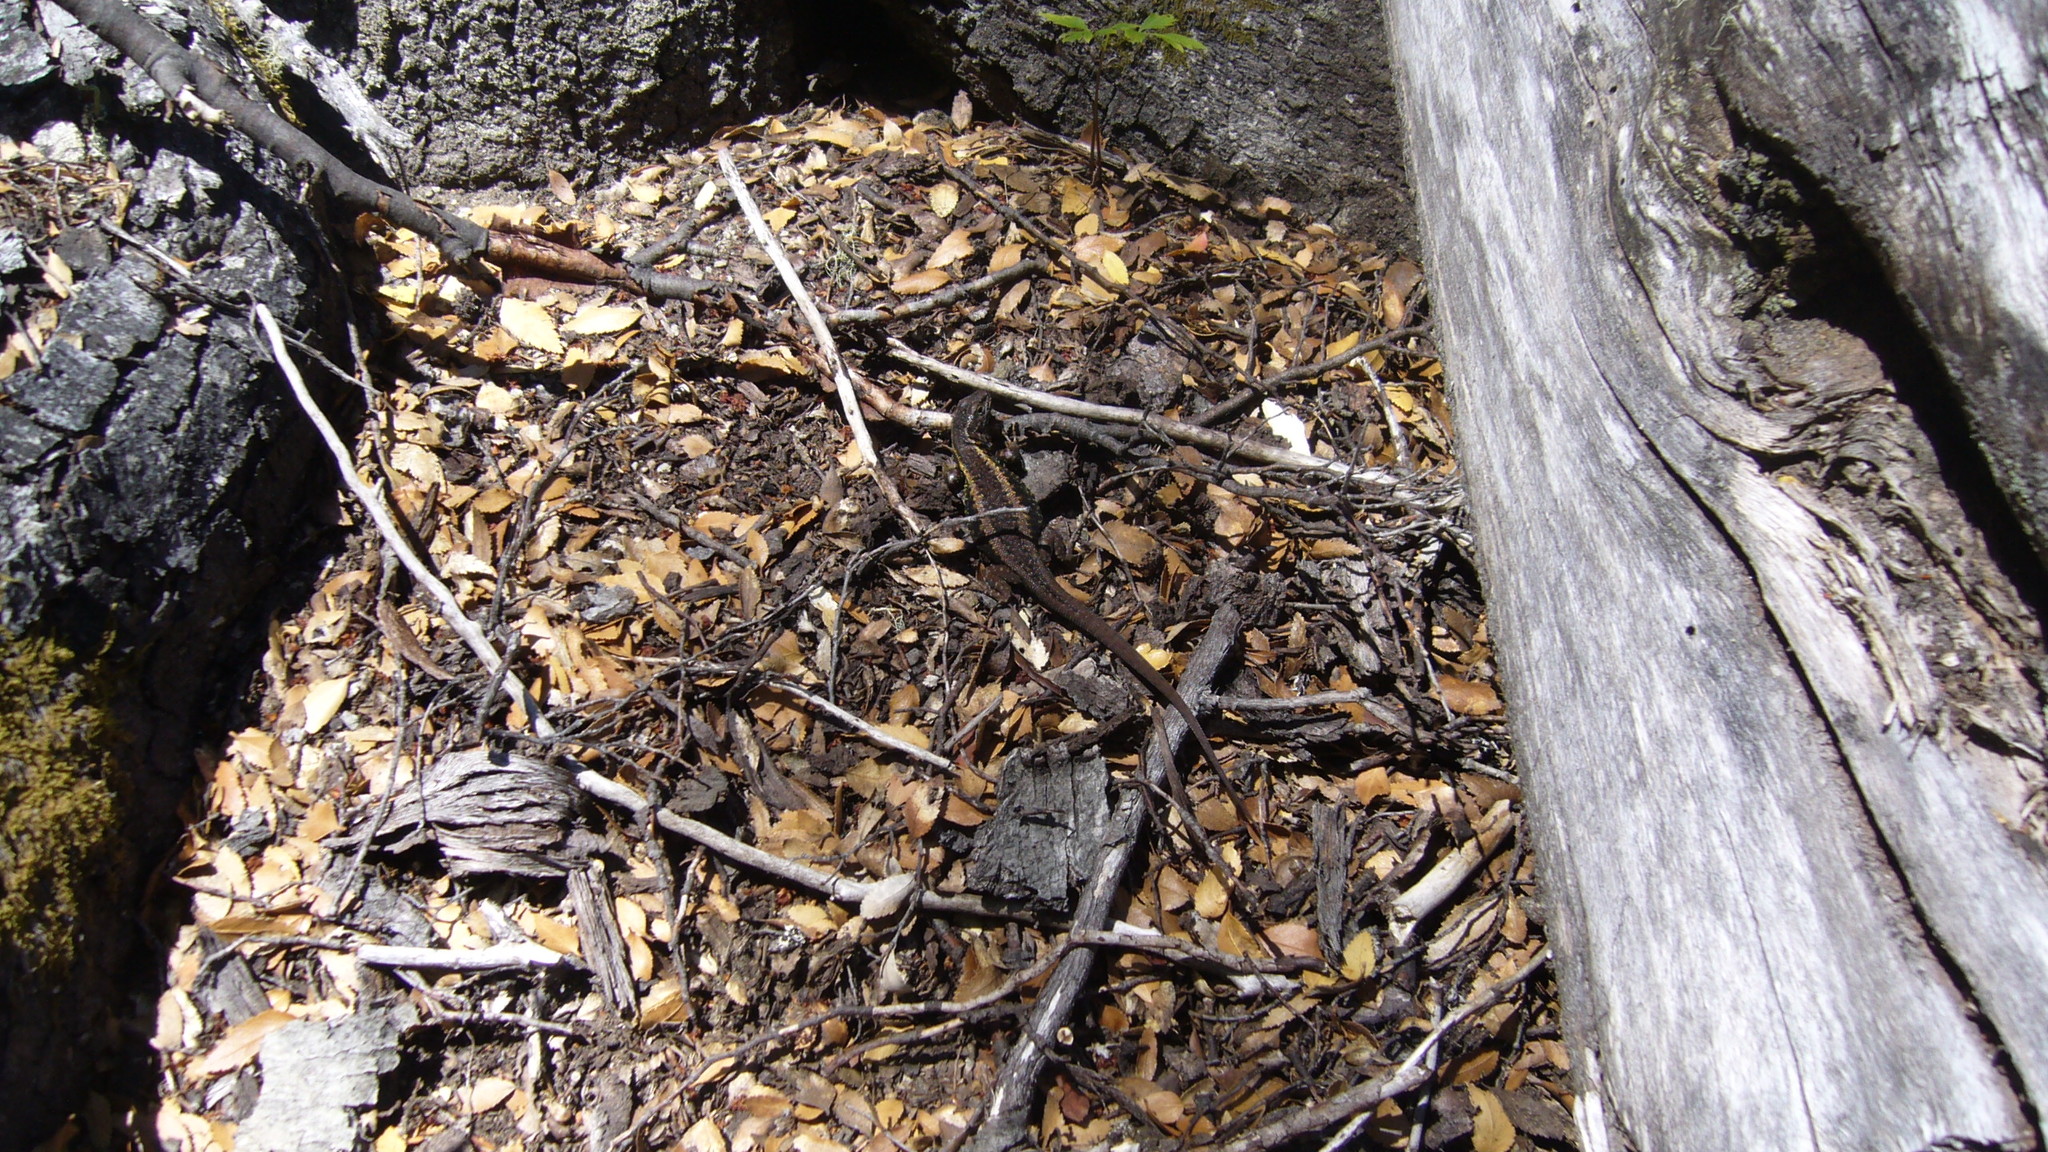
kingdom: Animalia
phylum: Chordata
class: Squamata
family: Liolaemidae
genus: Liolaemus
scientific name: Liolaemus pictus
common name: Painted tree iguana
